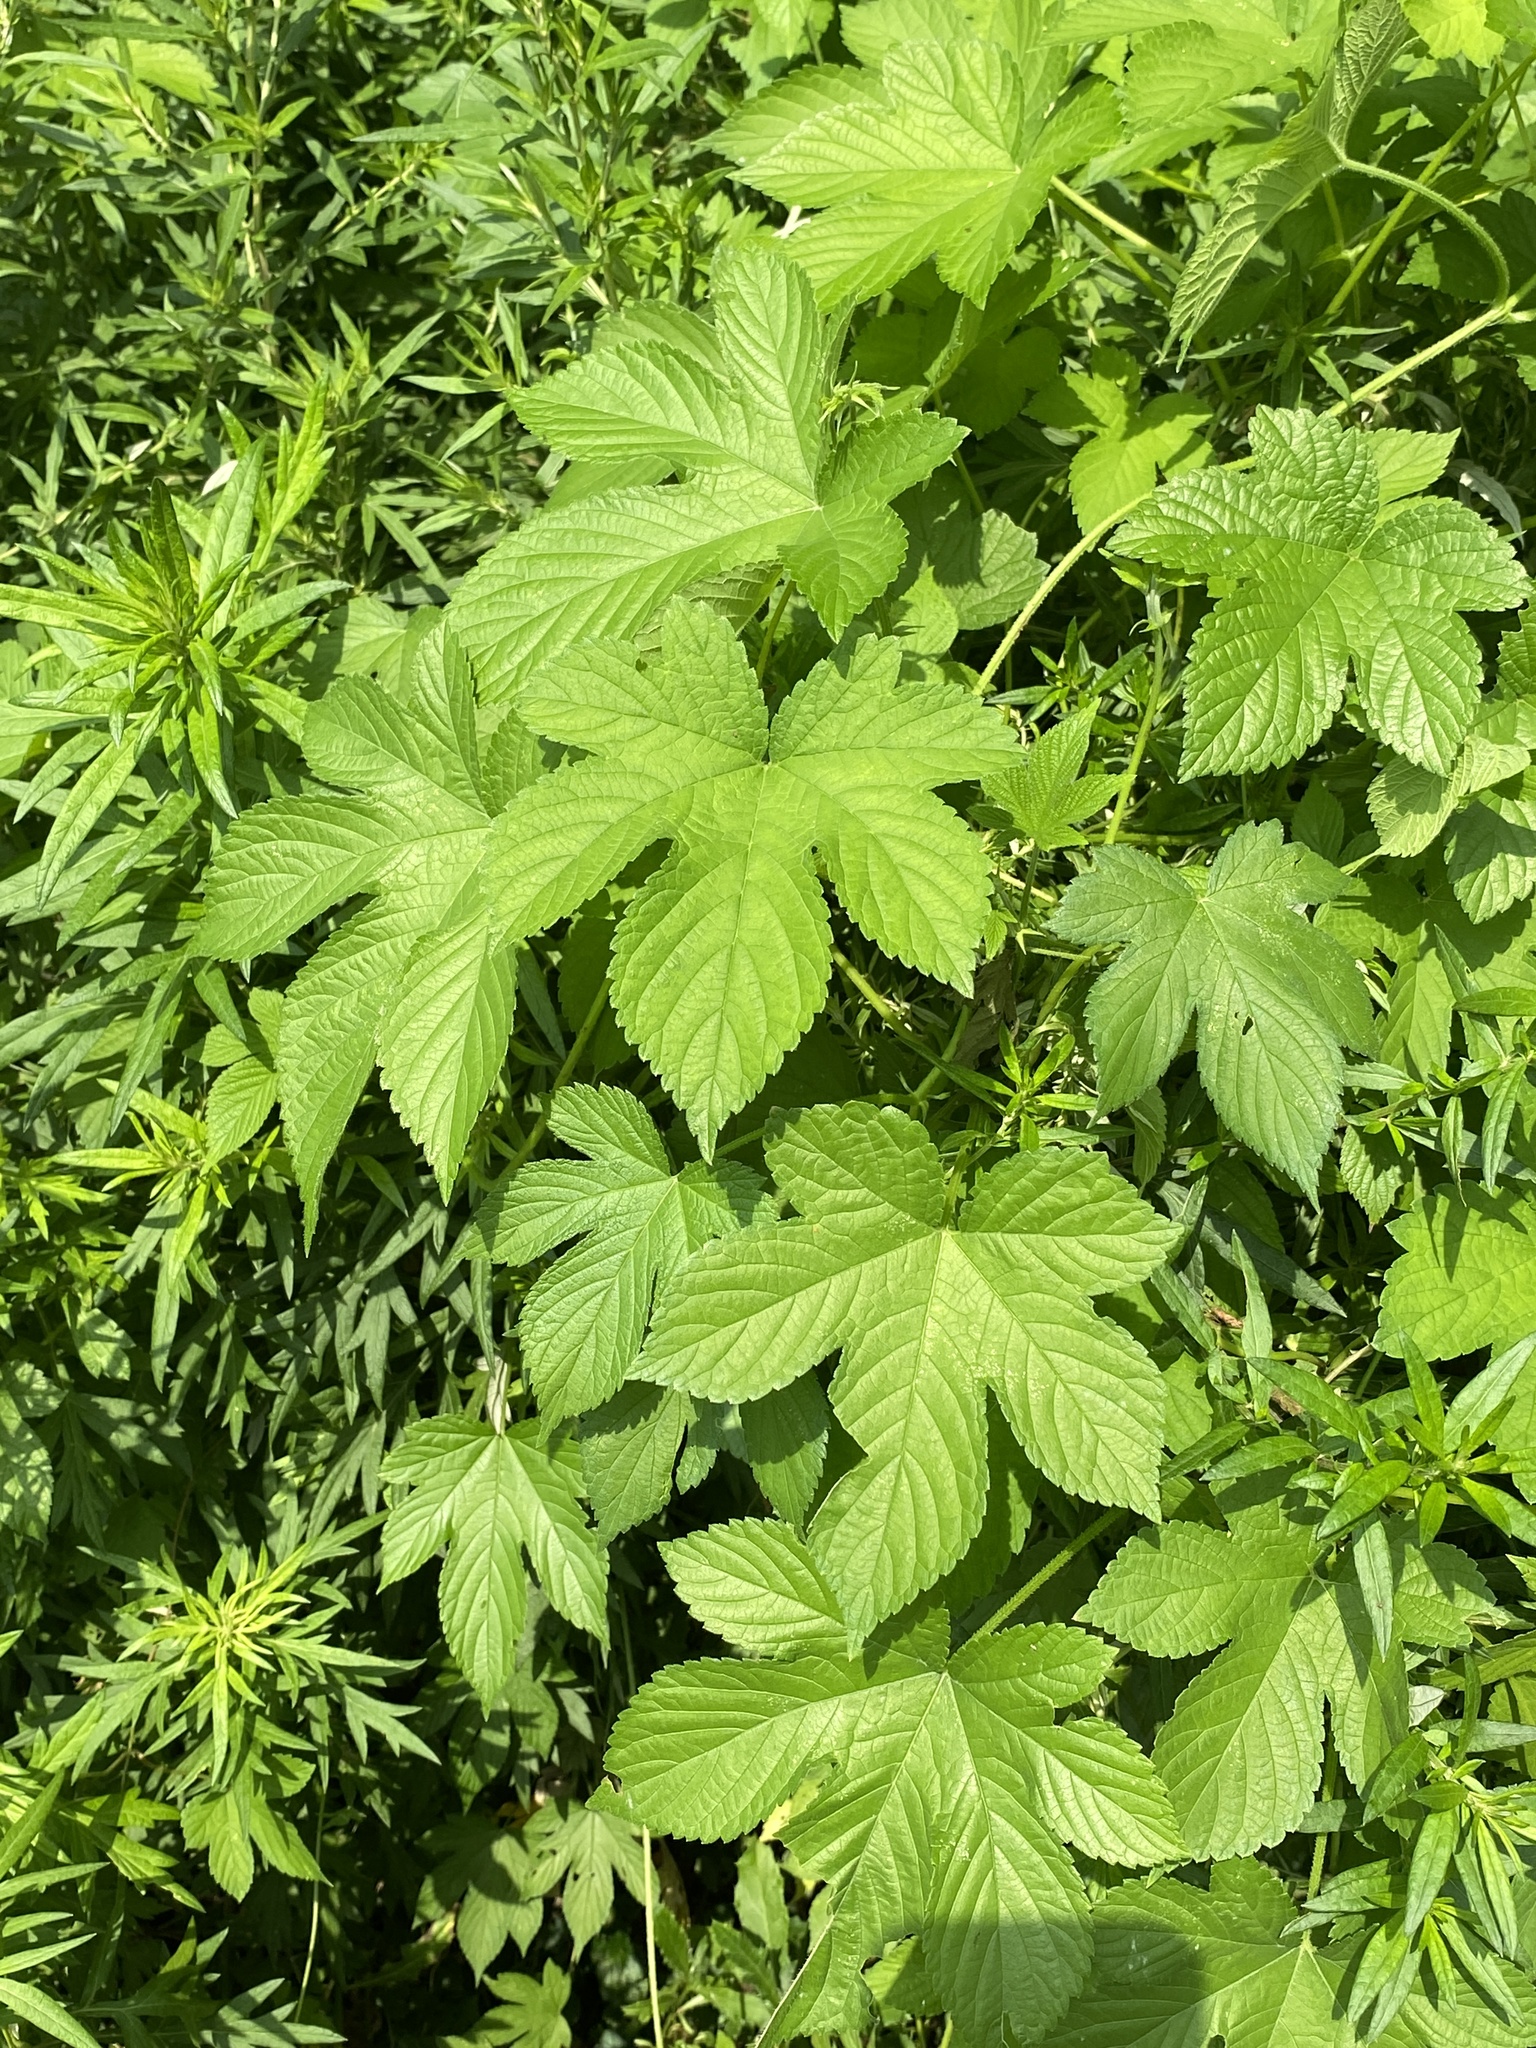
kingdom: Plantae
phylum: Tracheophyta
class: Magnoliopsida
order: Rosales
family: Cannabaceae
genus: Humulus
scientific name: Humulus scandens
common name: Japanese hop
